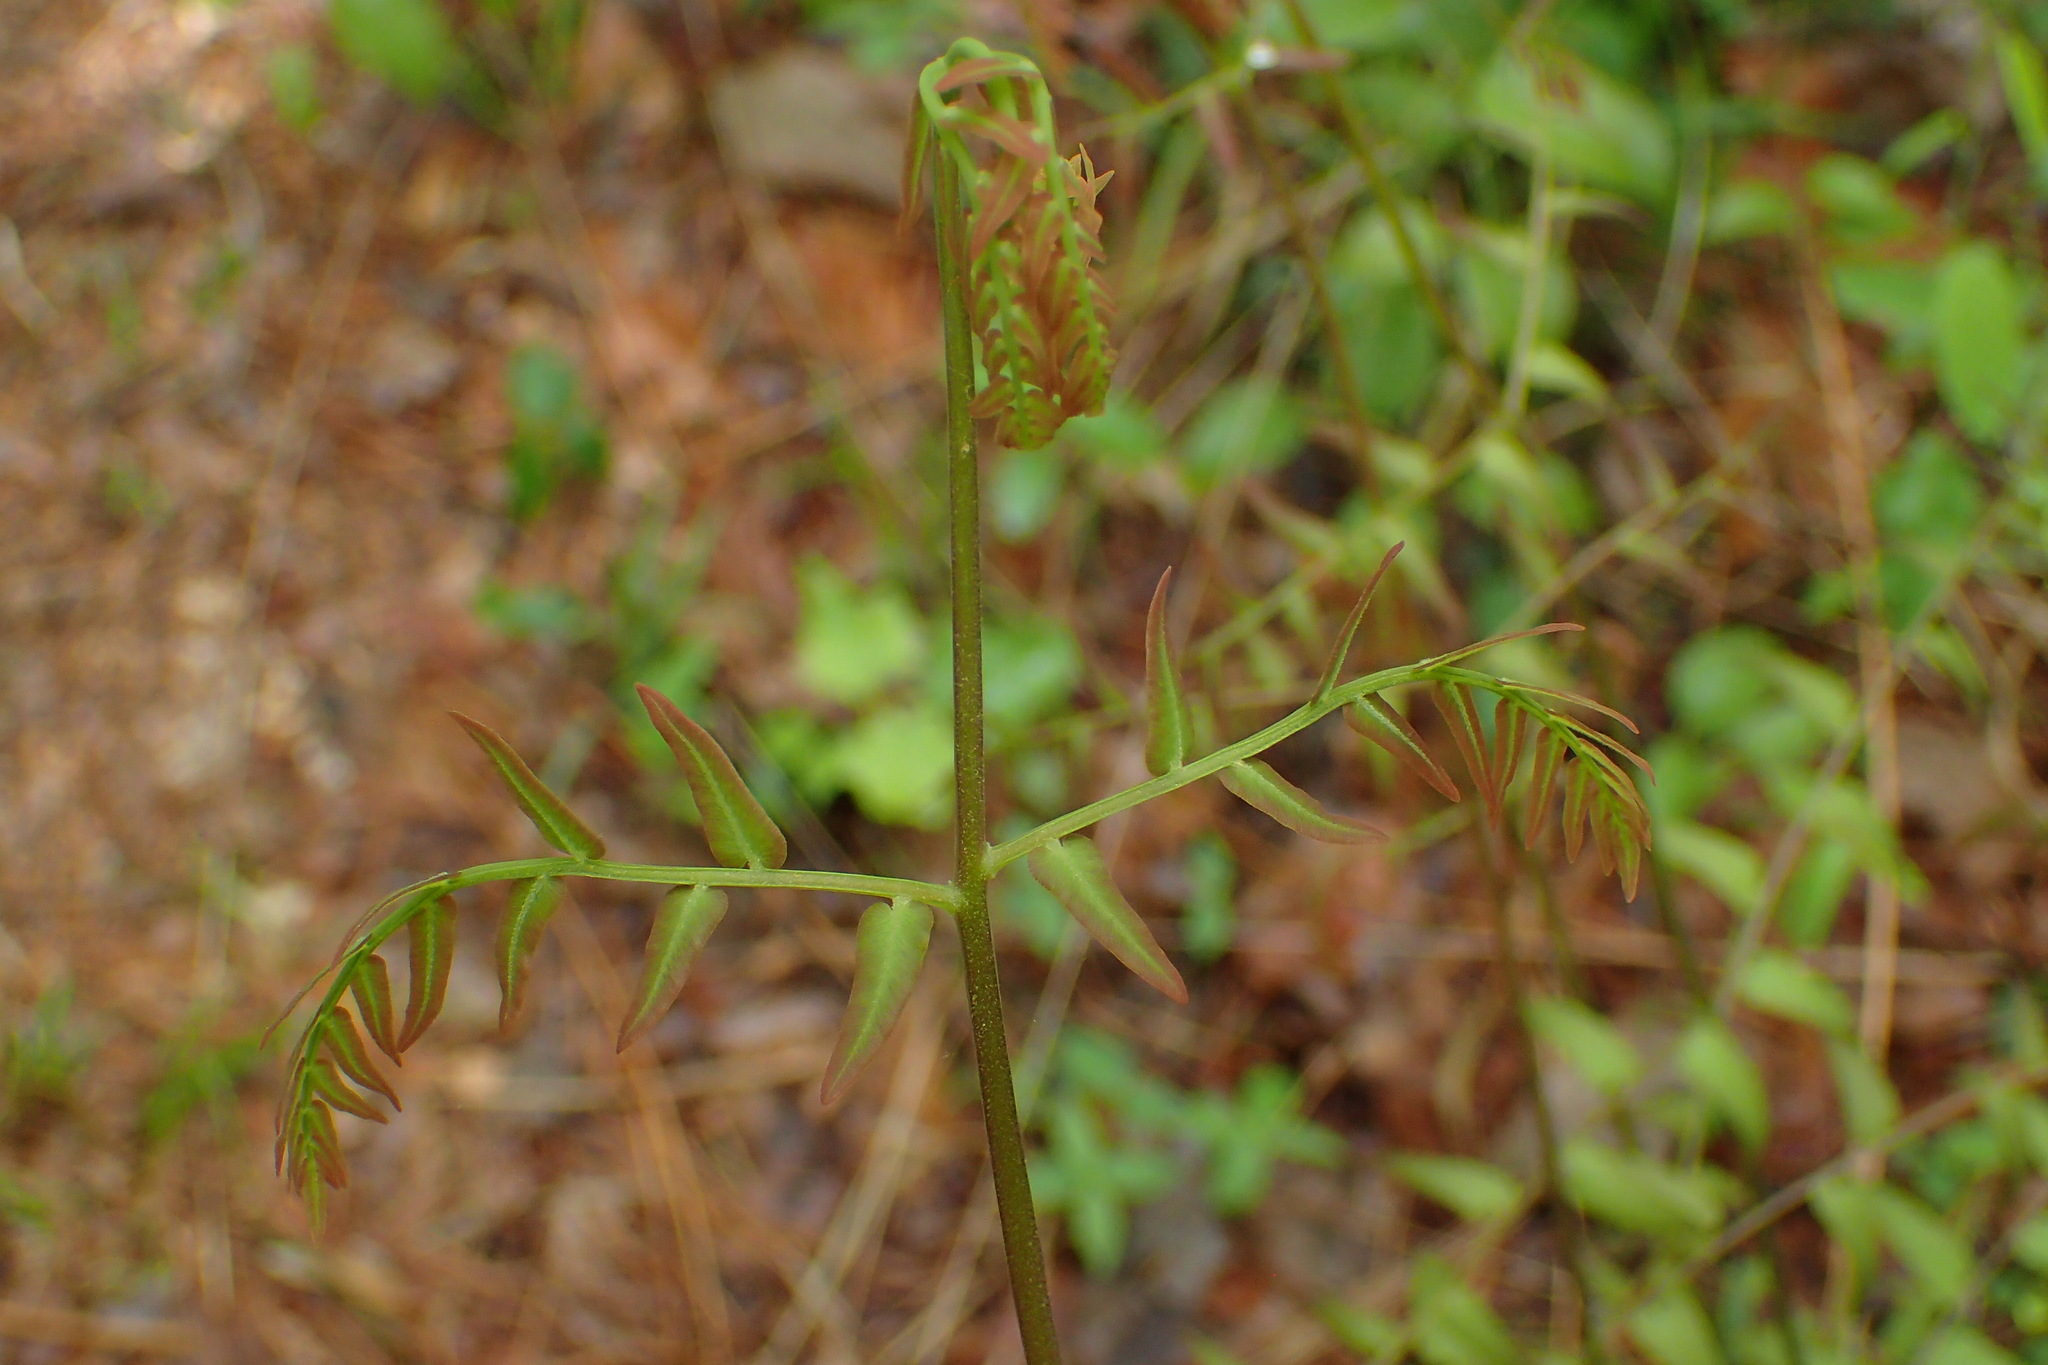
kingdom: Plantae
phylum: Tracheophyta
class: Polypodiopsida
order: Osmundales
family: Osmundaceae
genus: Osmunda
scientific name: Osmunda spectabilis
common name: American royal fern
